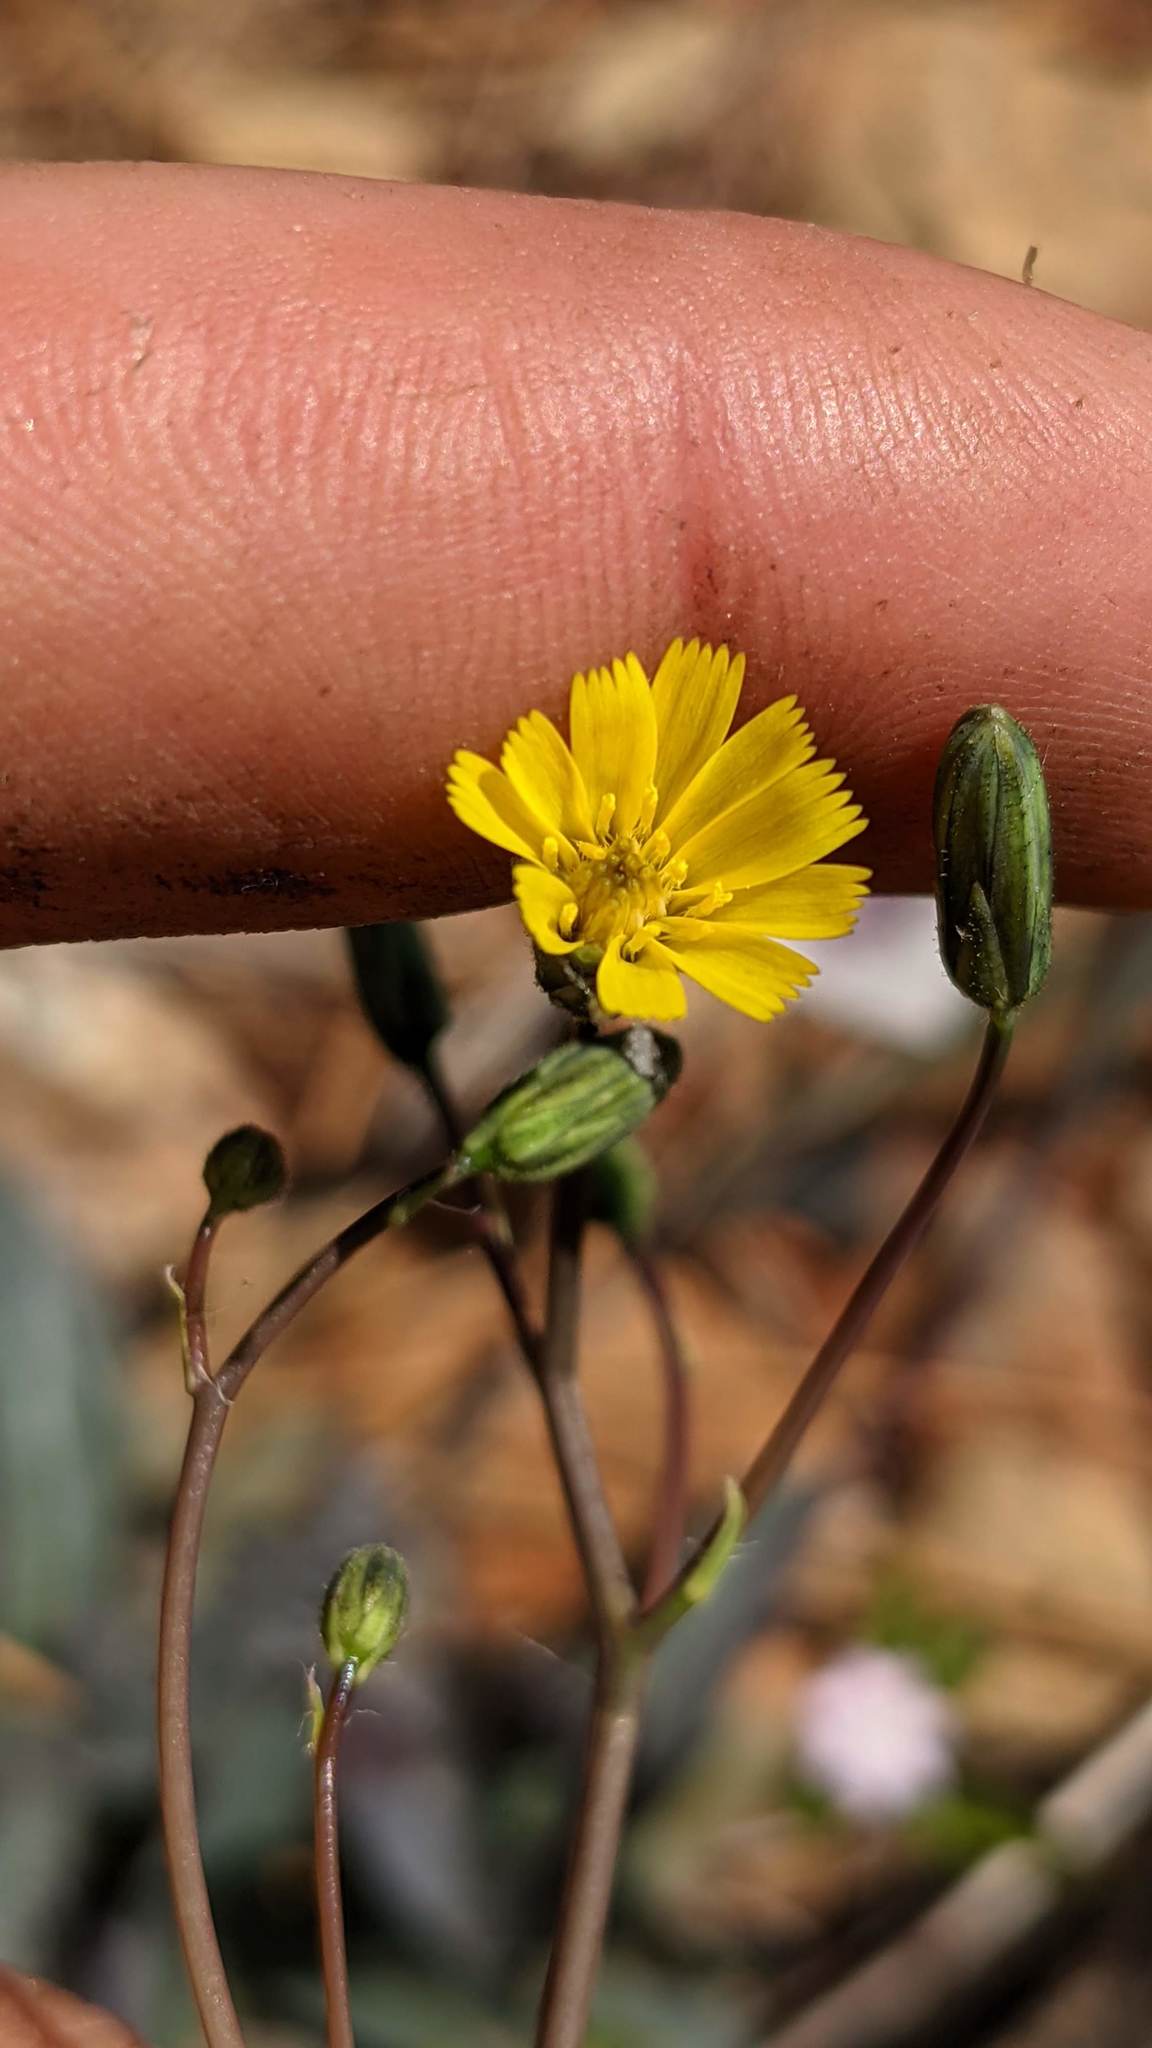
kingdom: Plantae
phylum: Tracheophyta
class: Magnoliopsida
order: Asterales
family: Asteraceae
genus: Hieracium
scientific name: Hieracium bolanderi
